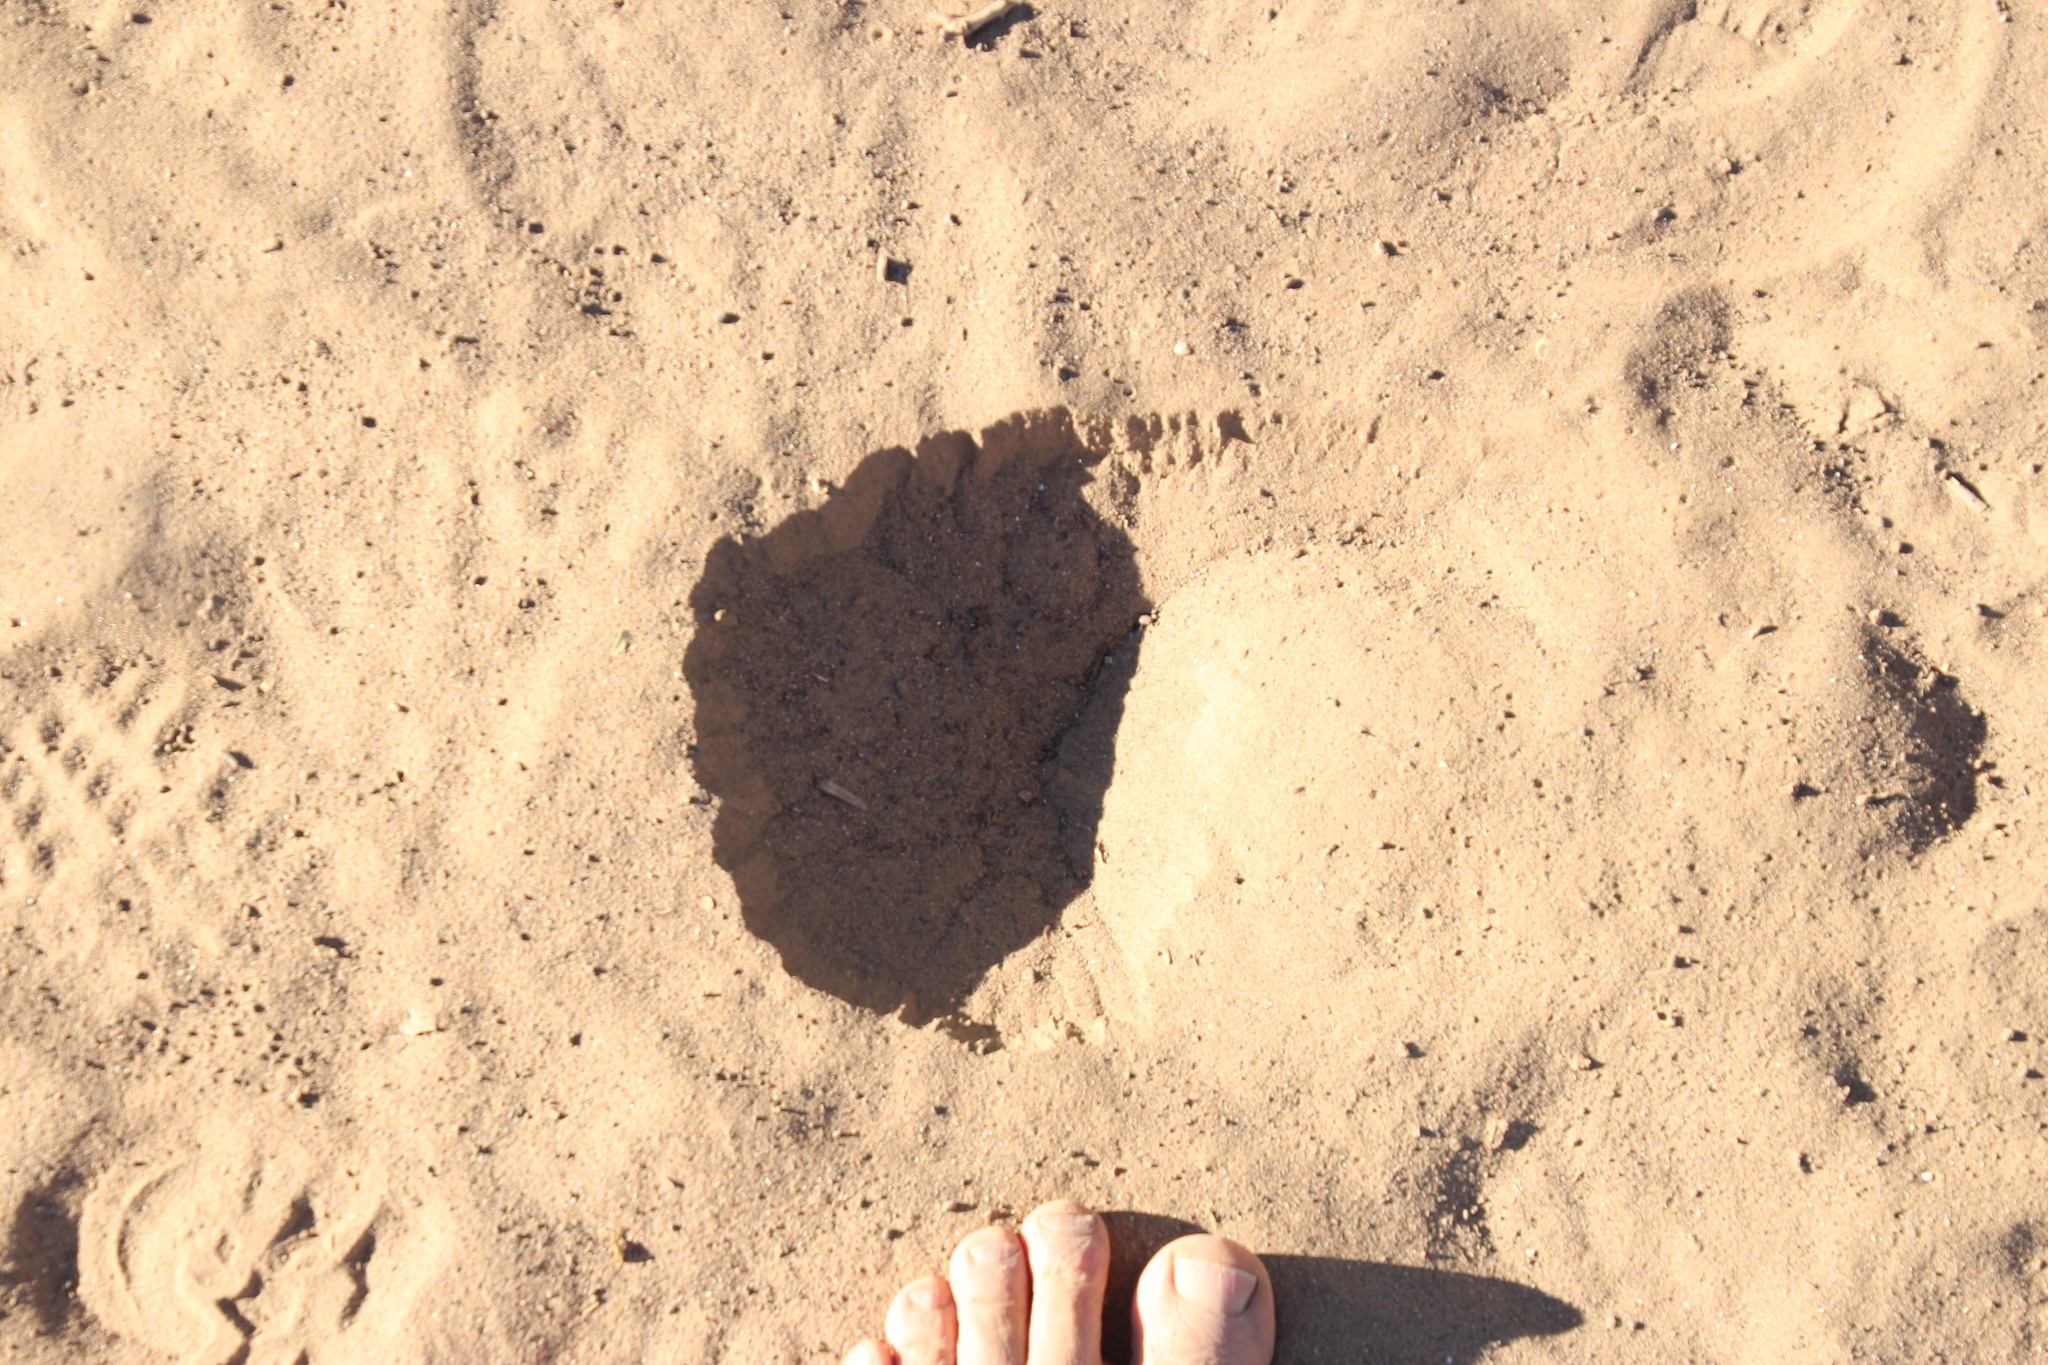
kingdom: Animalia
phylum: Chordata
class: Mammalia
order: Artiodactyla
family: Giraffidae
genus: Giraffa
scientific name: Giraffa giraffa
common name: Southern giraffe
